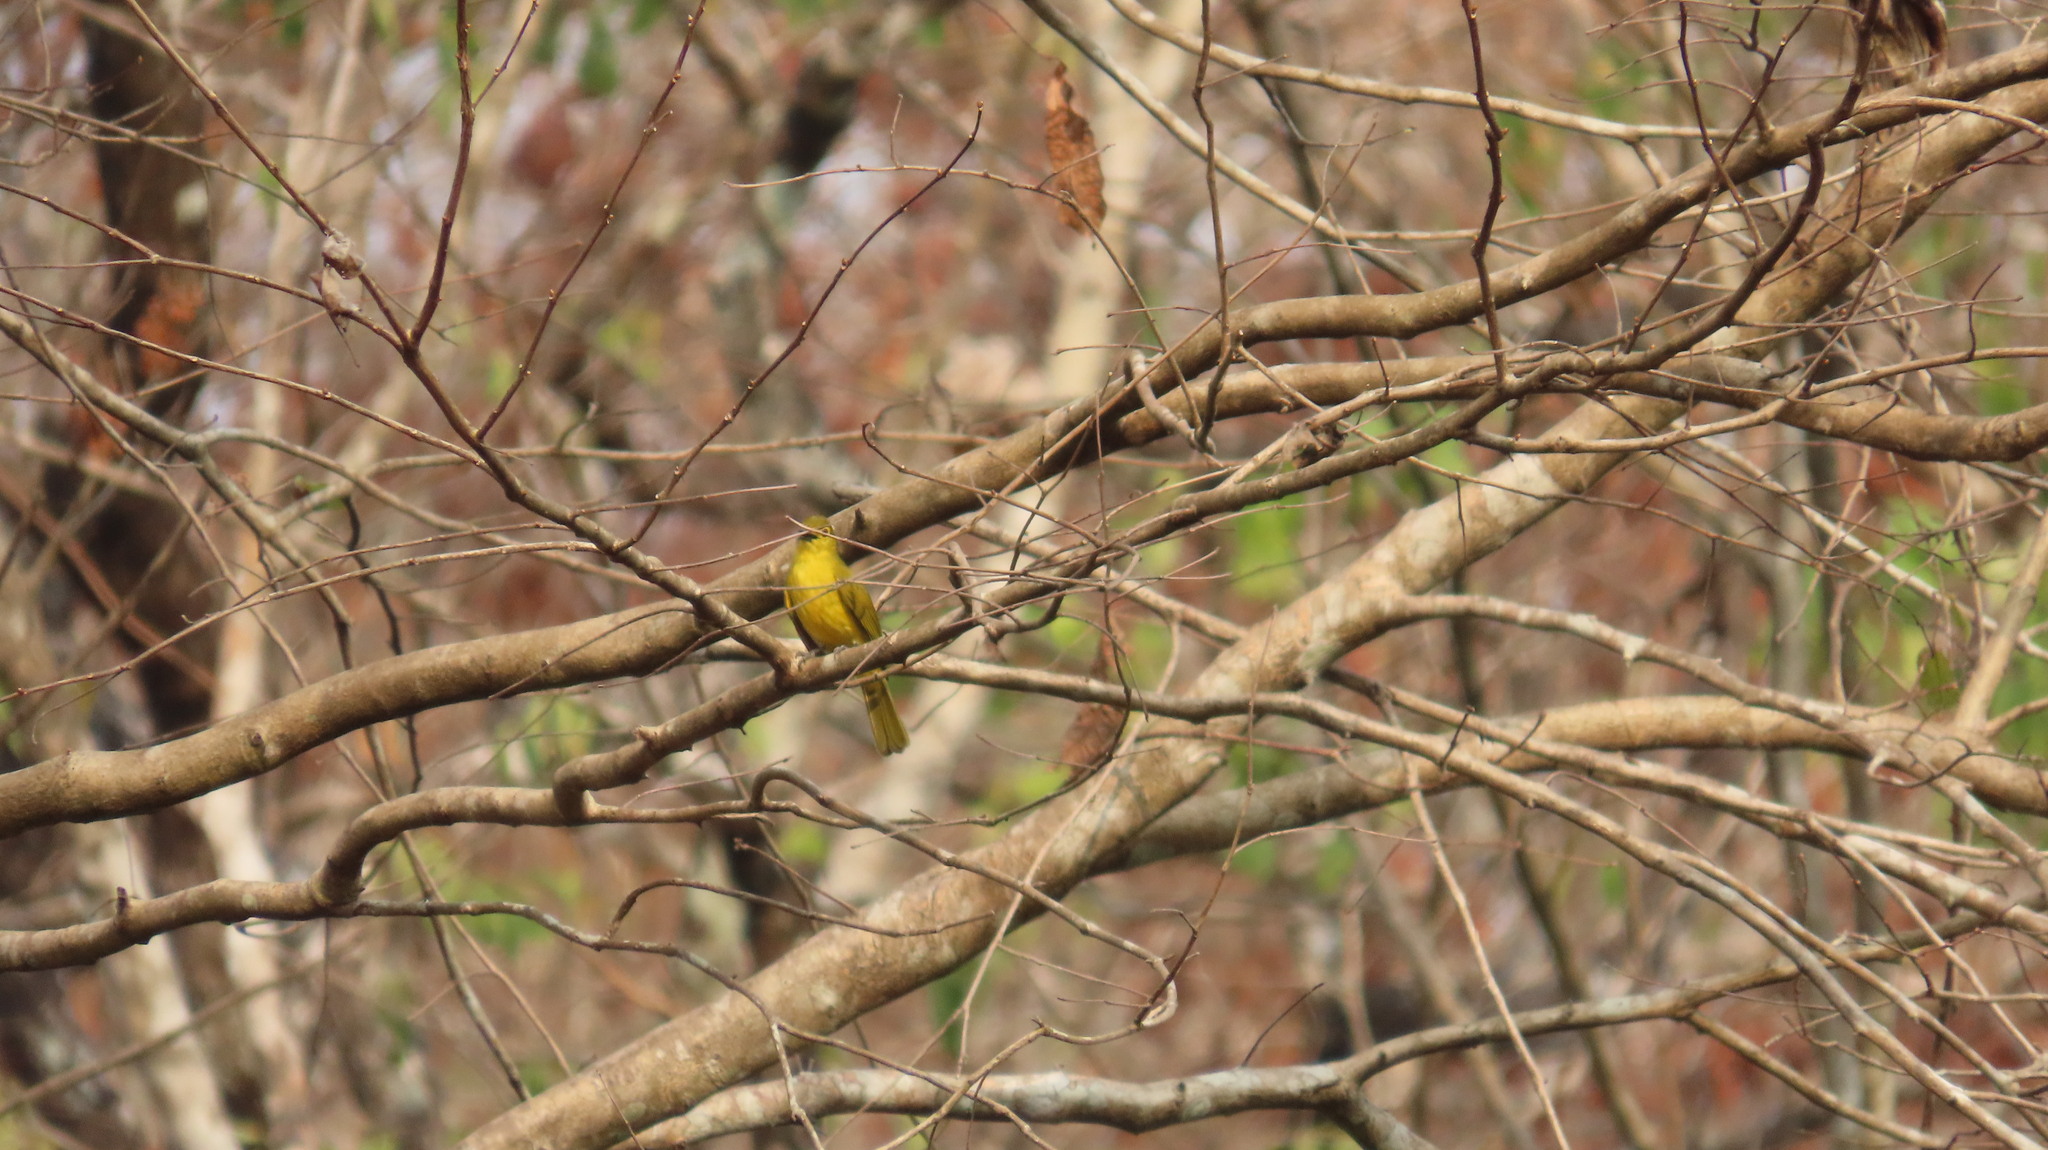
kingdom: Animalia
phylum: Chordata
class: Aves
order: Passeriformes
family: Pycnonotidae
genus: Acritillas
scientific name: Acritillas indica
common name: Yellow-browed bulbul
